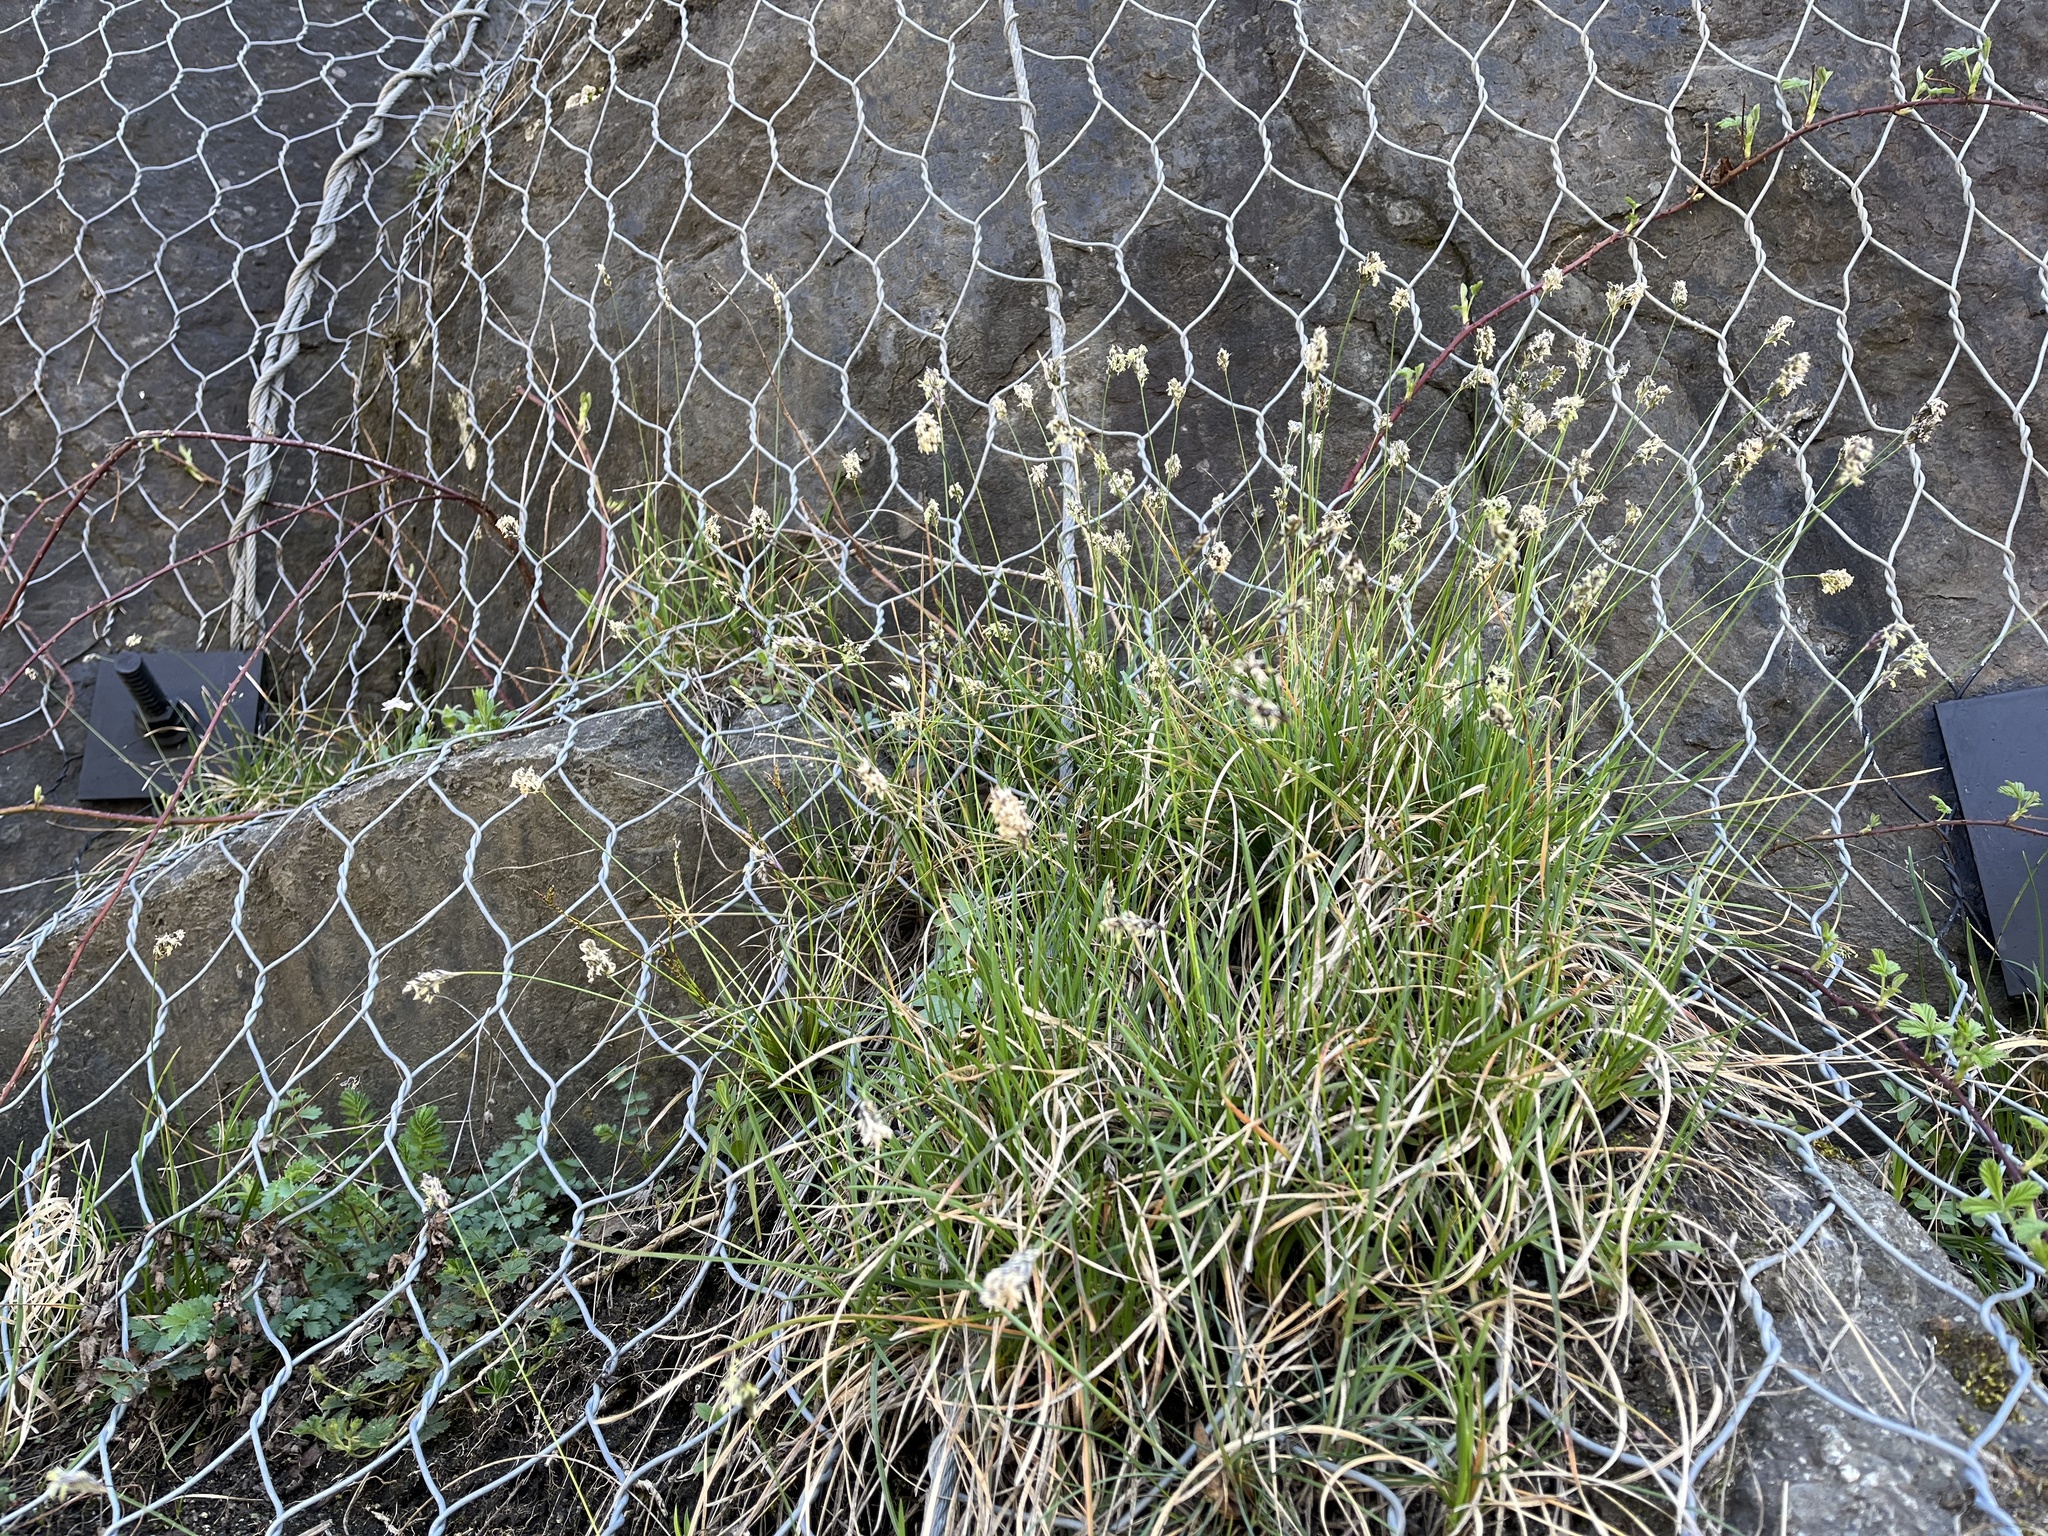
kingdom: Plantae
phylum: Tracheophyta
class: Liliopsida
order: Poales
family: Poaceae
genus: Sesleria
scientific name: Sesleria caerulea
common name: Blue moor-grass
